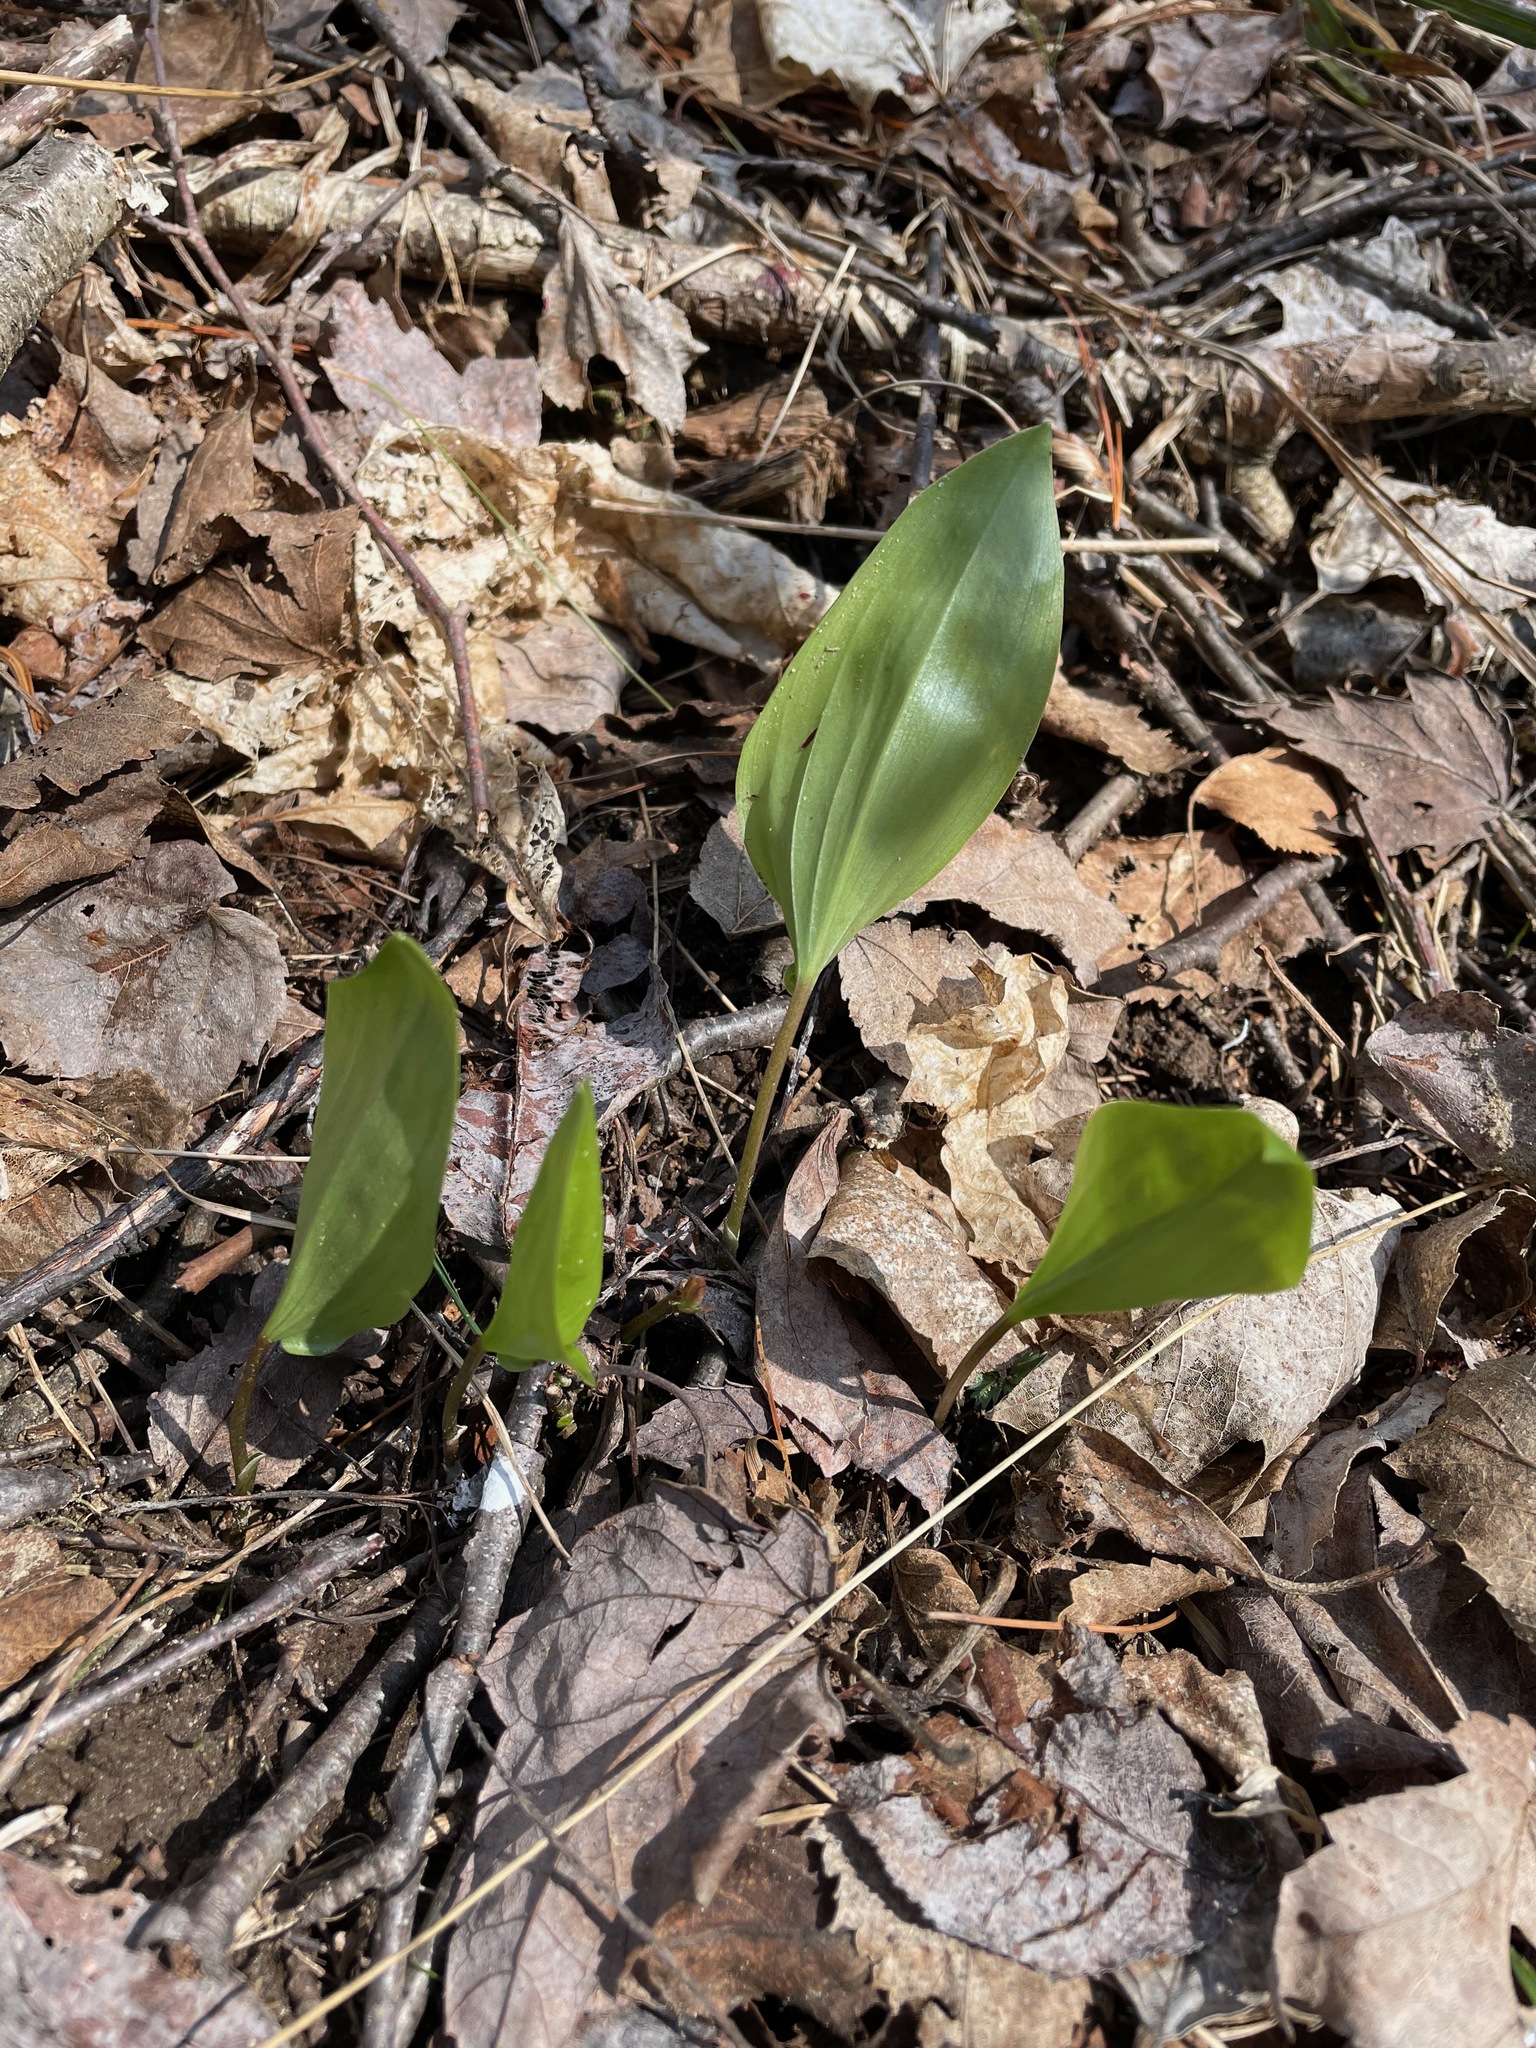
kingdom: Plantae
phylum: Tracheophyta
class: Liliopsida
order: Asparagales
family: Asparagaceae
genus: Maianthemum
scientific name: Maianthemum canadense
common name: False lily-of-the-valley
